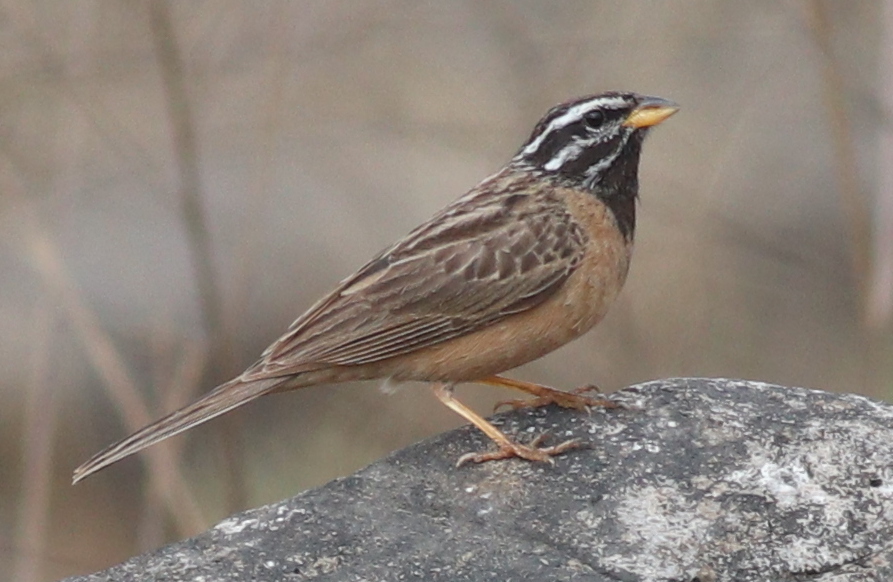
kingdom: Animalia
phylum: Chordata
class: Aves
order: Passeriformes
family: Emberizidae
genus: Emberiza
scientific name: Emberiza tahapisi
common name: Cinnamon-breasted bunting
